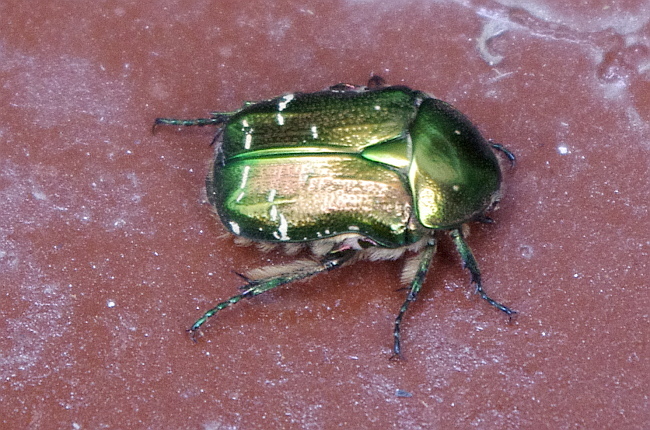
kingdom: Animalia
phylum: Arthropoda
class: Insecta
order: Coleoptera
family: Scarabaeidae
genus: Cetonia
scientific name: Cetonia aurata
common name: Rose chafer
